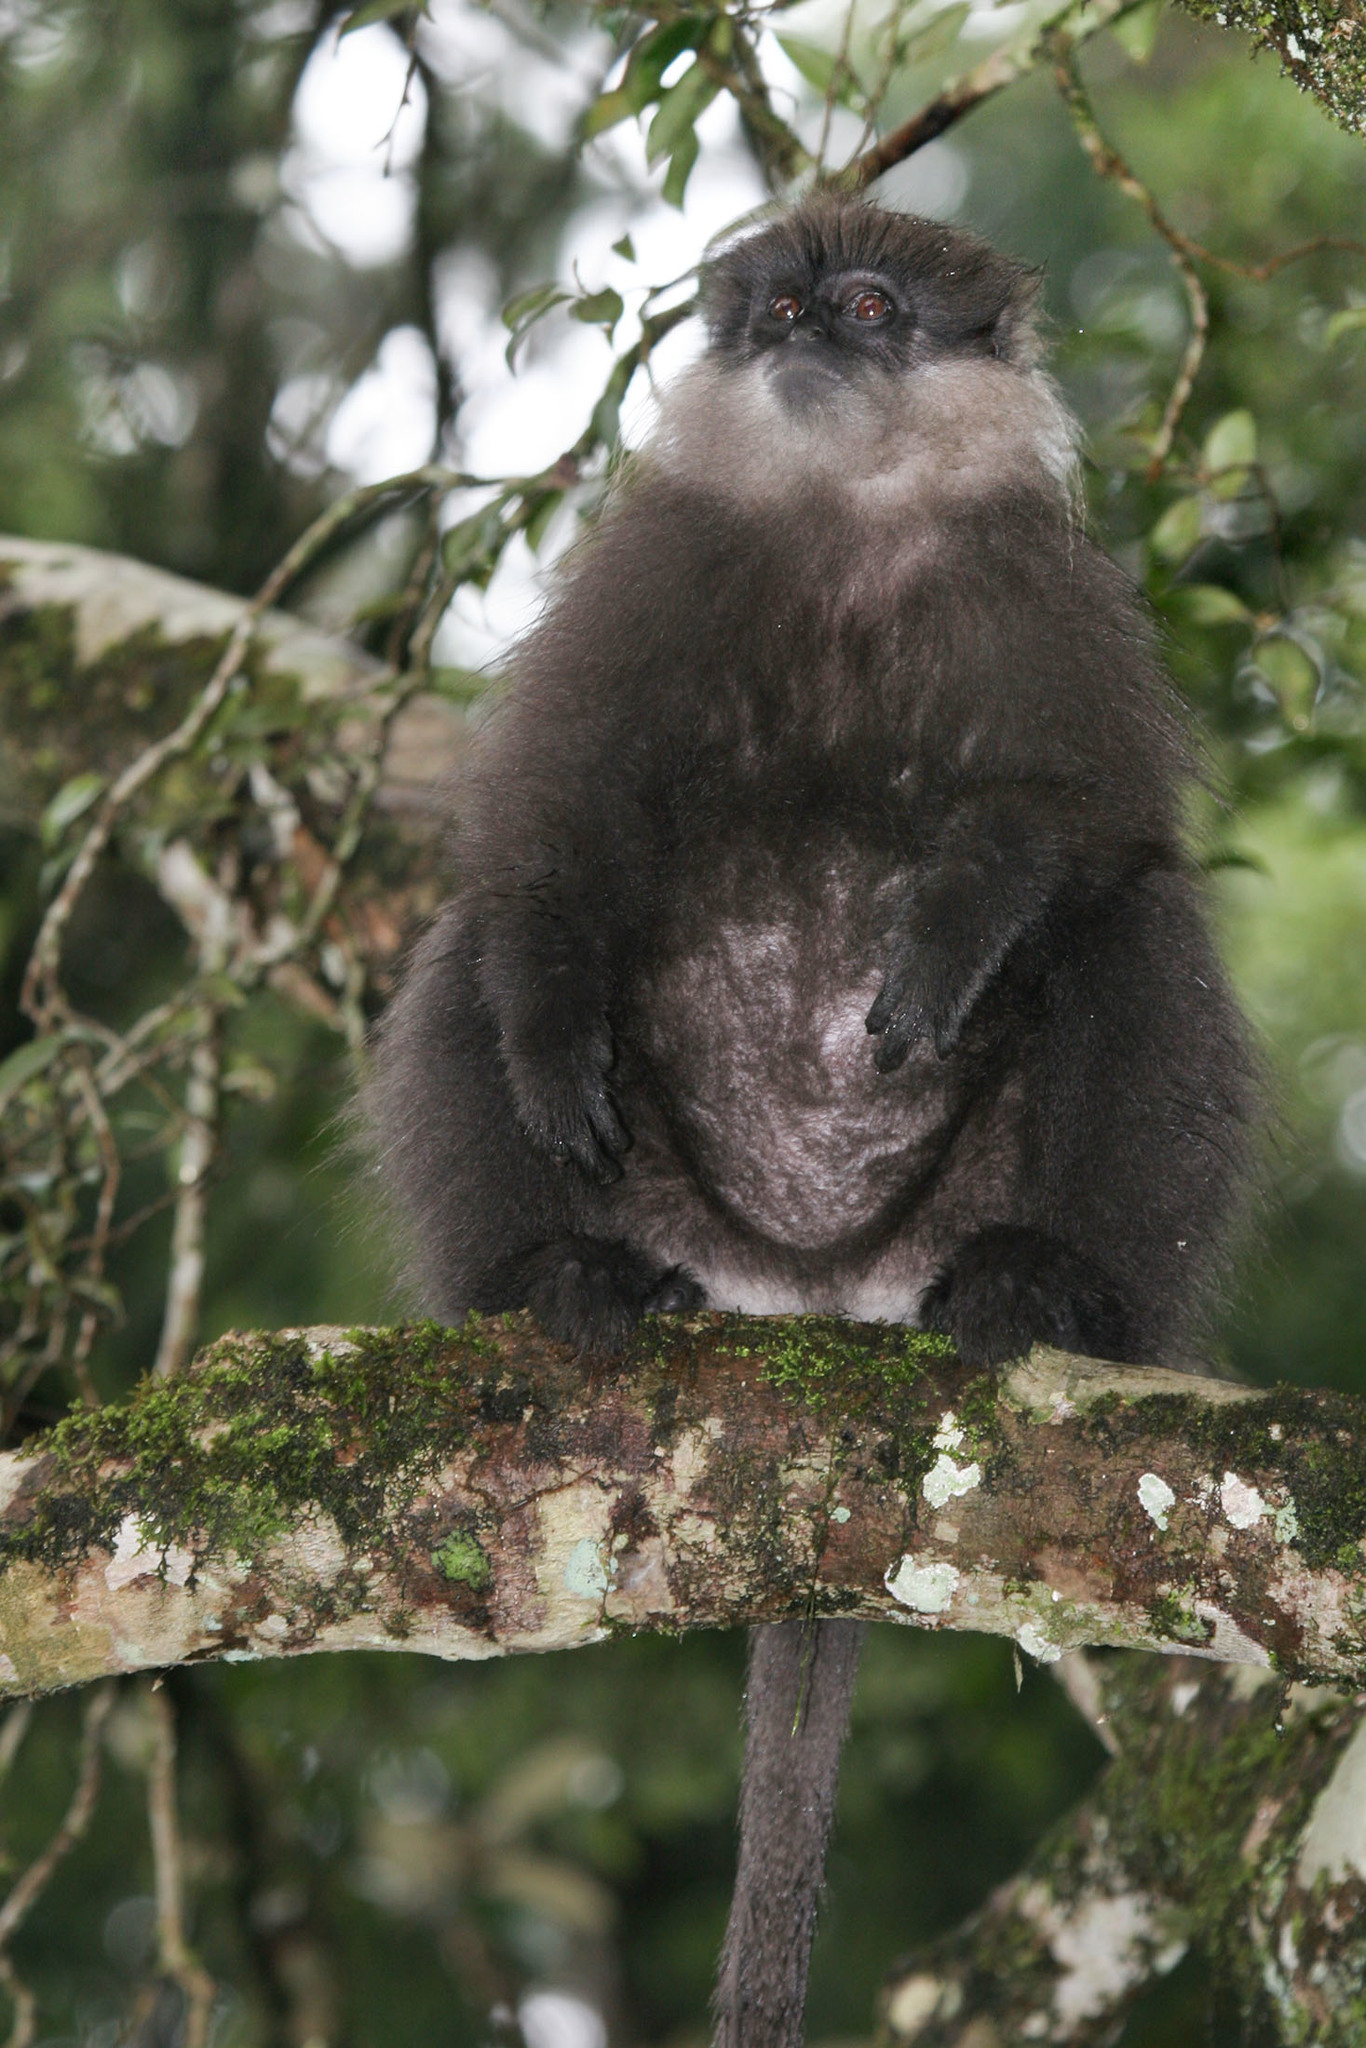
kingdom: Animalia
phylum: Chordata
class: Mammalia
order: Primates
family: Cercopithecidae
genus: Semnopithecus
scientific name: Semnopithecus vetulus
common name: Purple-faced langur
